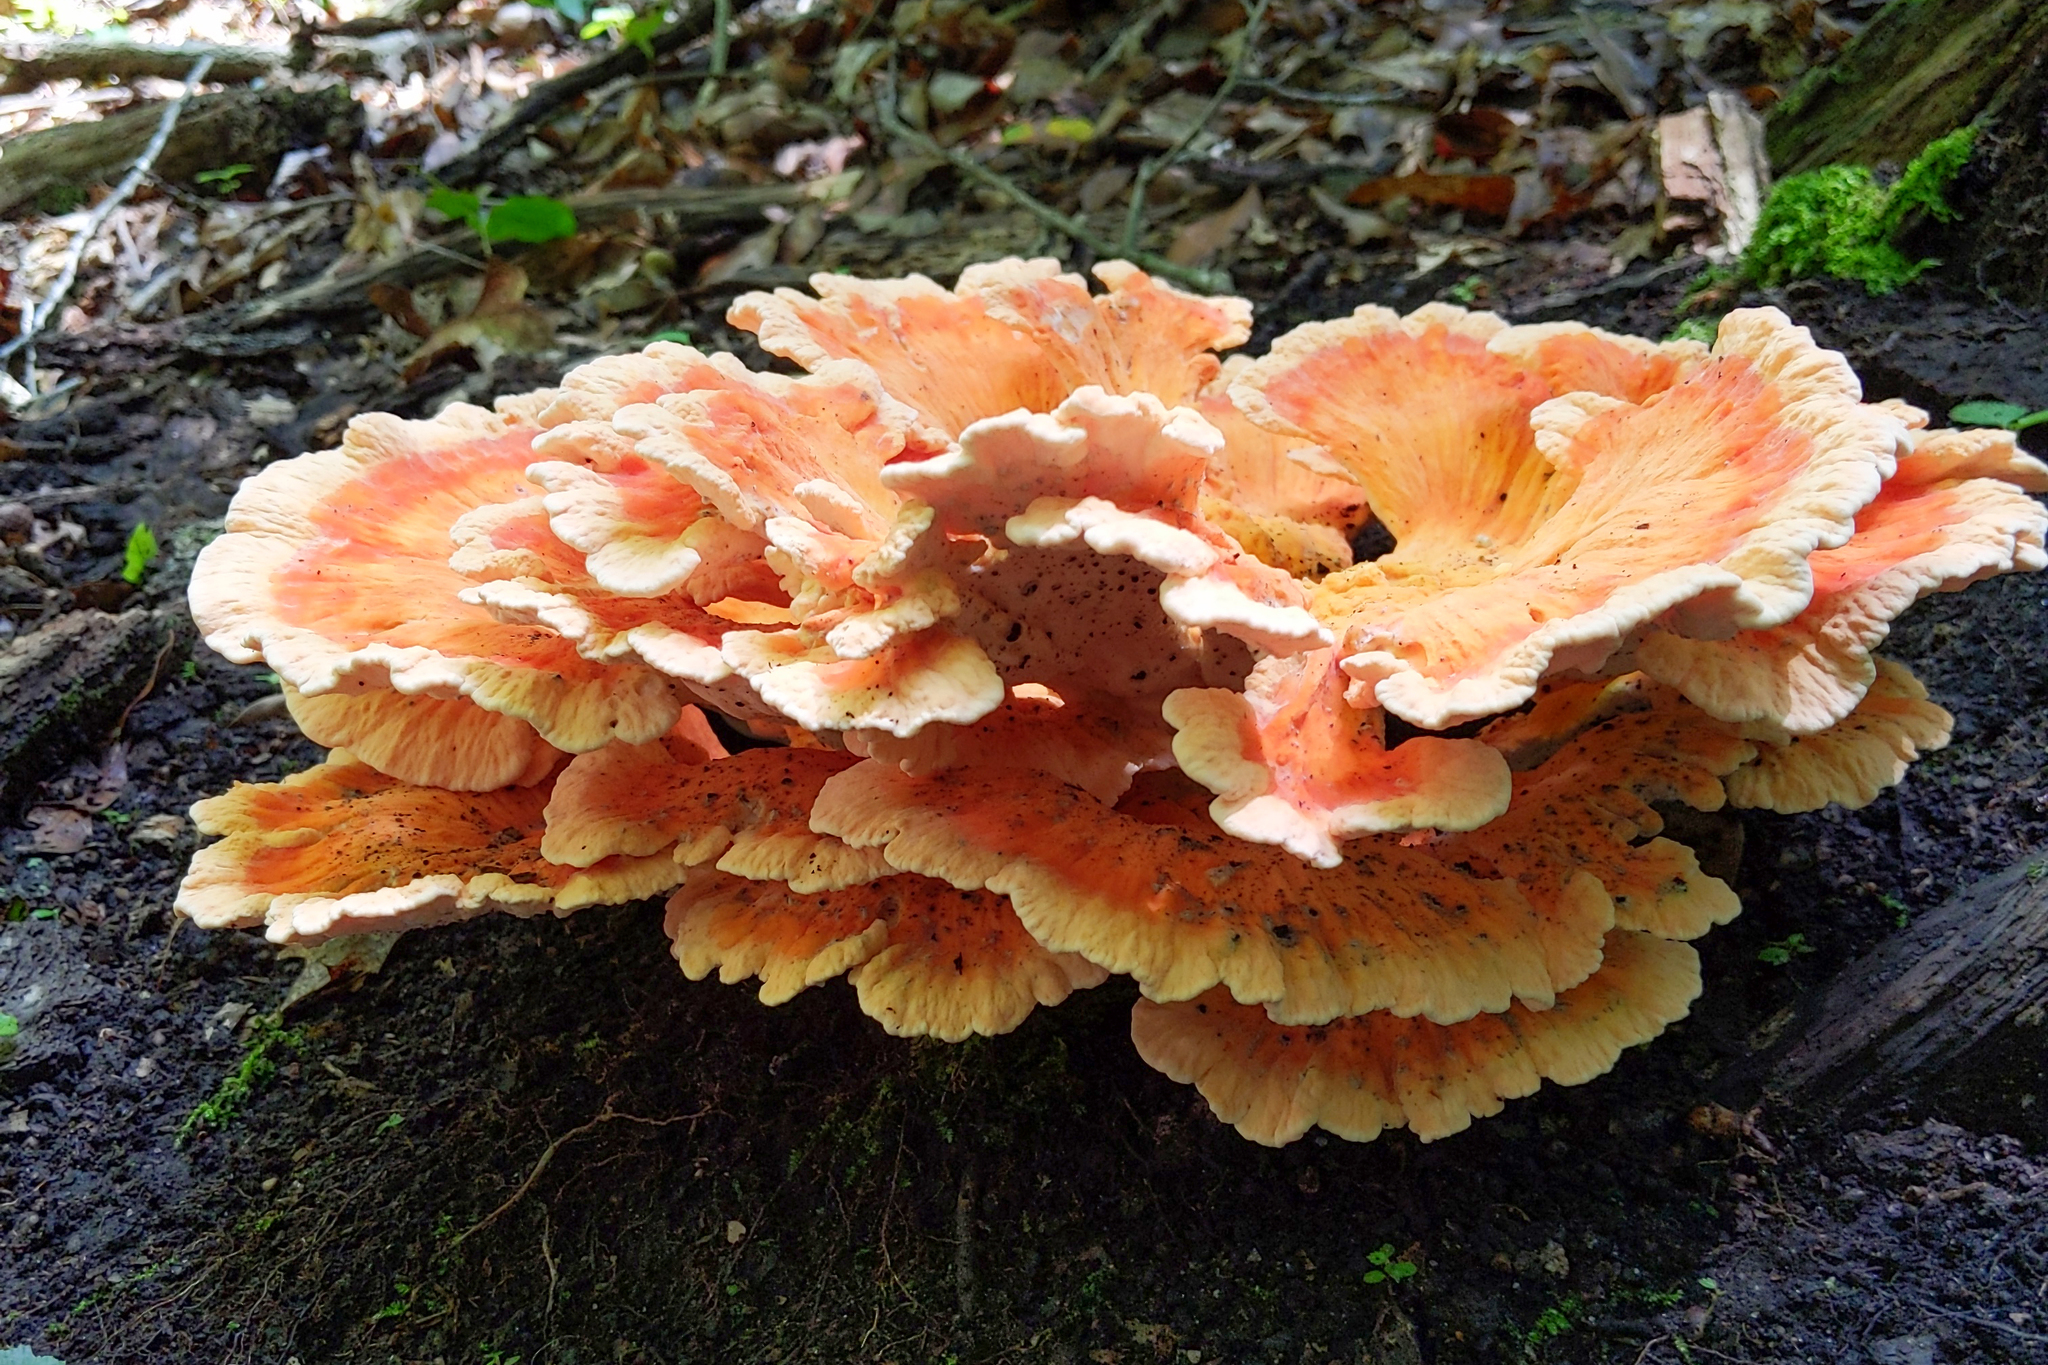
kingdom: Fungi
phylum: Basidiomycota
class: Agaricomycetes
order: Polyporales
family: Laetiporaceae
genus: Laetiporus
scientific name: Laetiporus sulphureus
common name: Chicken of the woods
